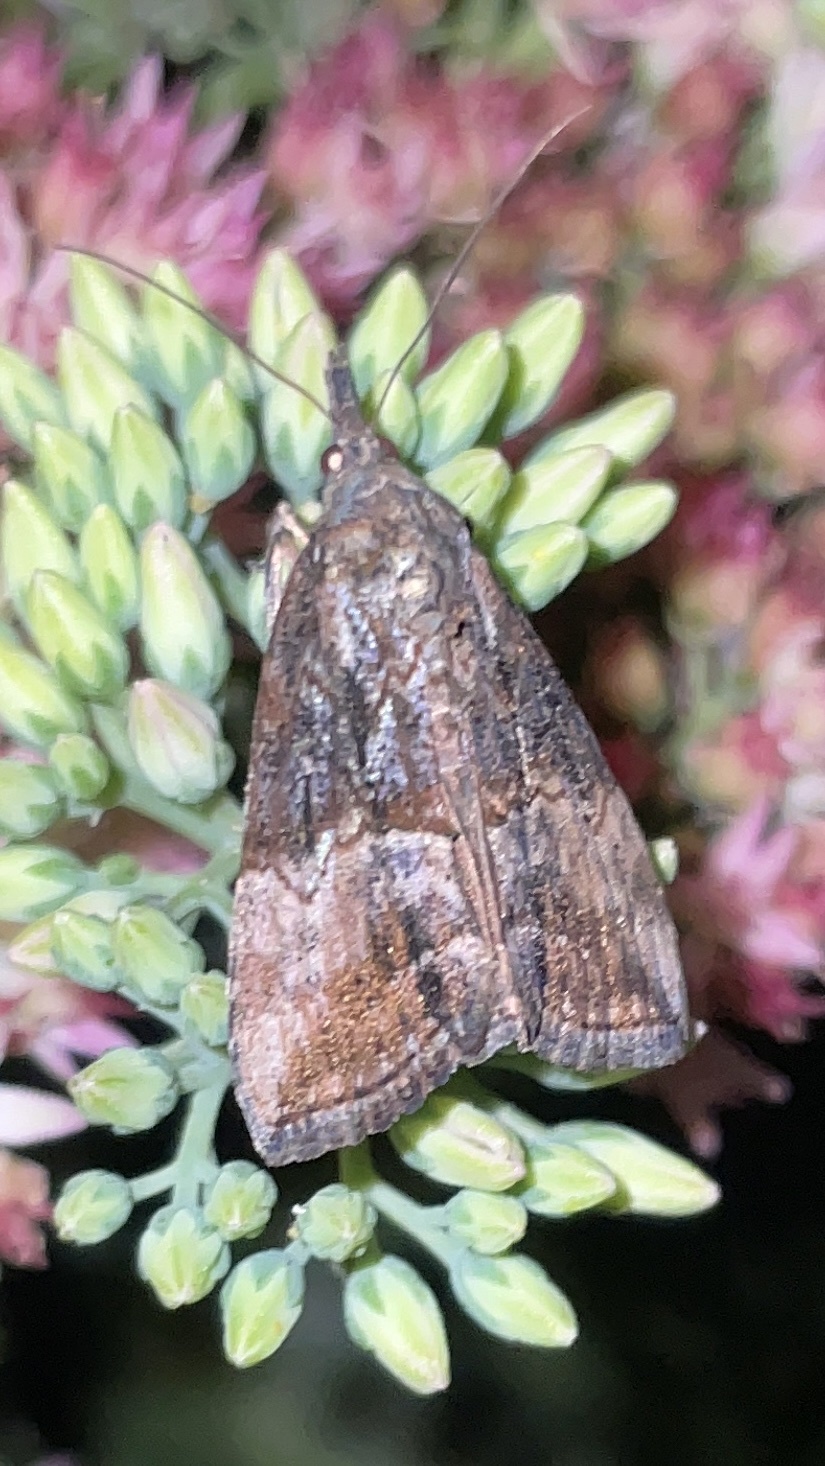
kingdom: Animalia
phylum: Arthropoda
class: Insecta
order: Lepidoptera
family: Erebidae
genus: Hypena
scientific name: Hypena scabra
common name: Green cloverworm
